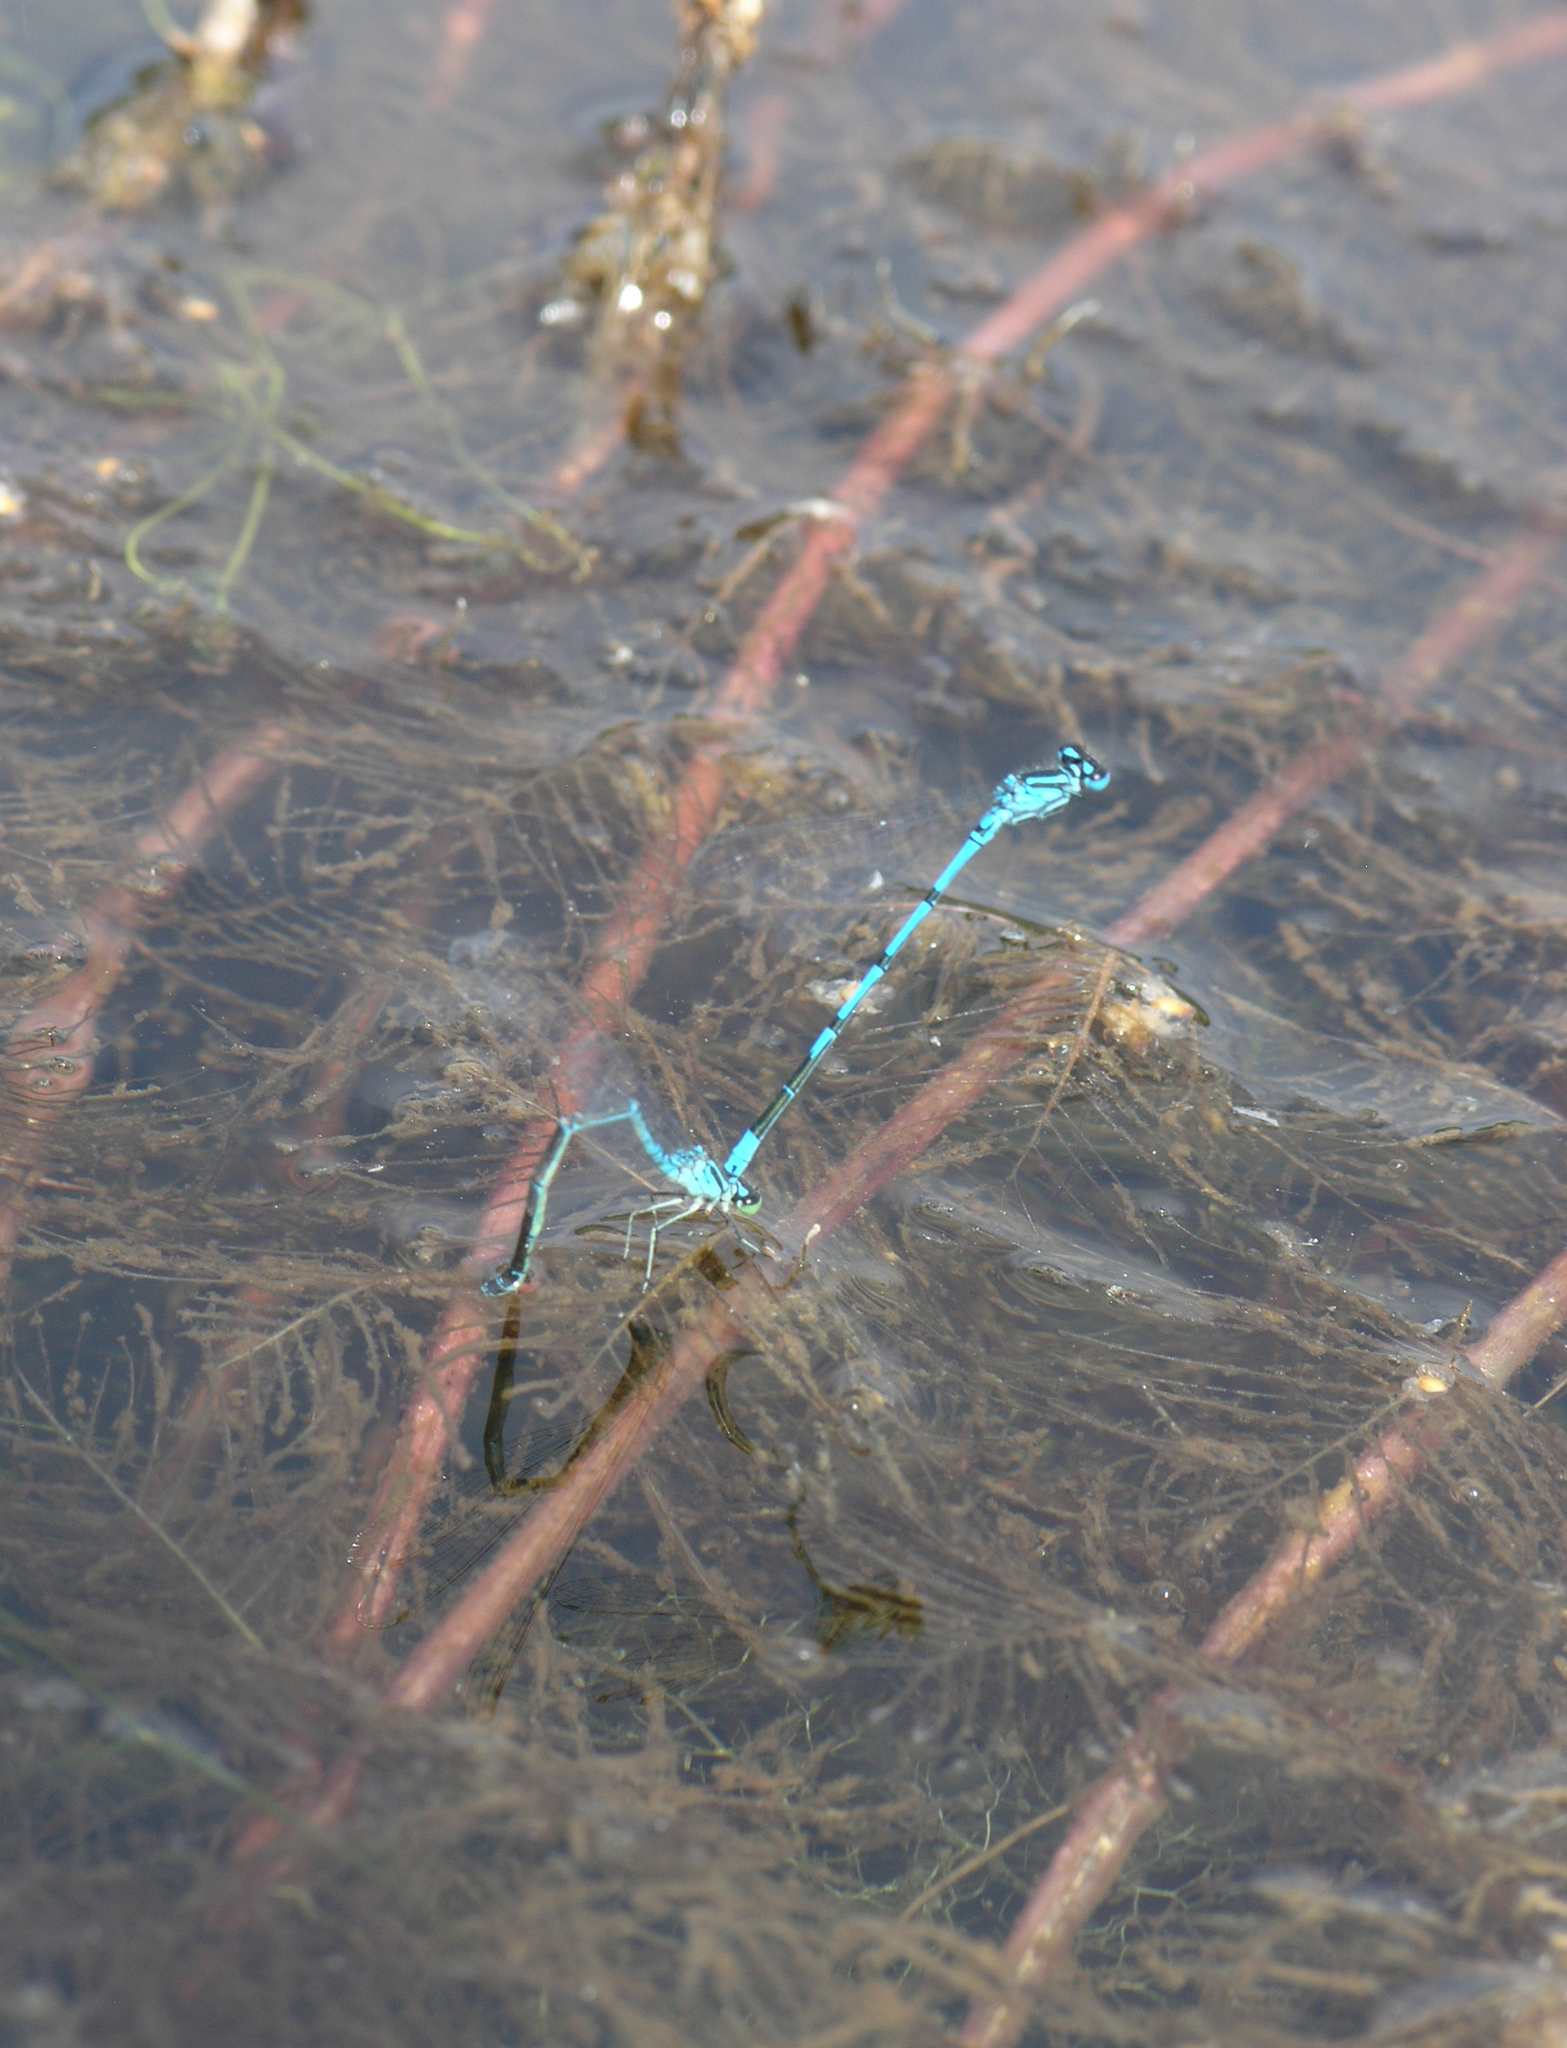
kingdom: Animalia
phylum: Arthropoda
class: Insecta
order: Odonata
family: Coenagrionidae
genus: Coenagrion
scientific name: Coenagrion puella
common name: Azure damselfly
